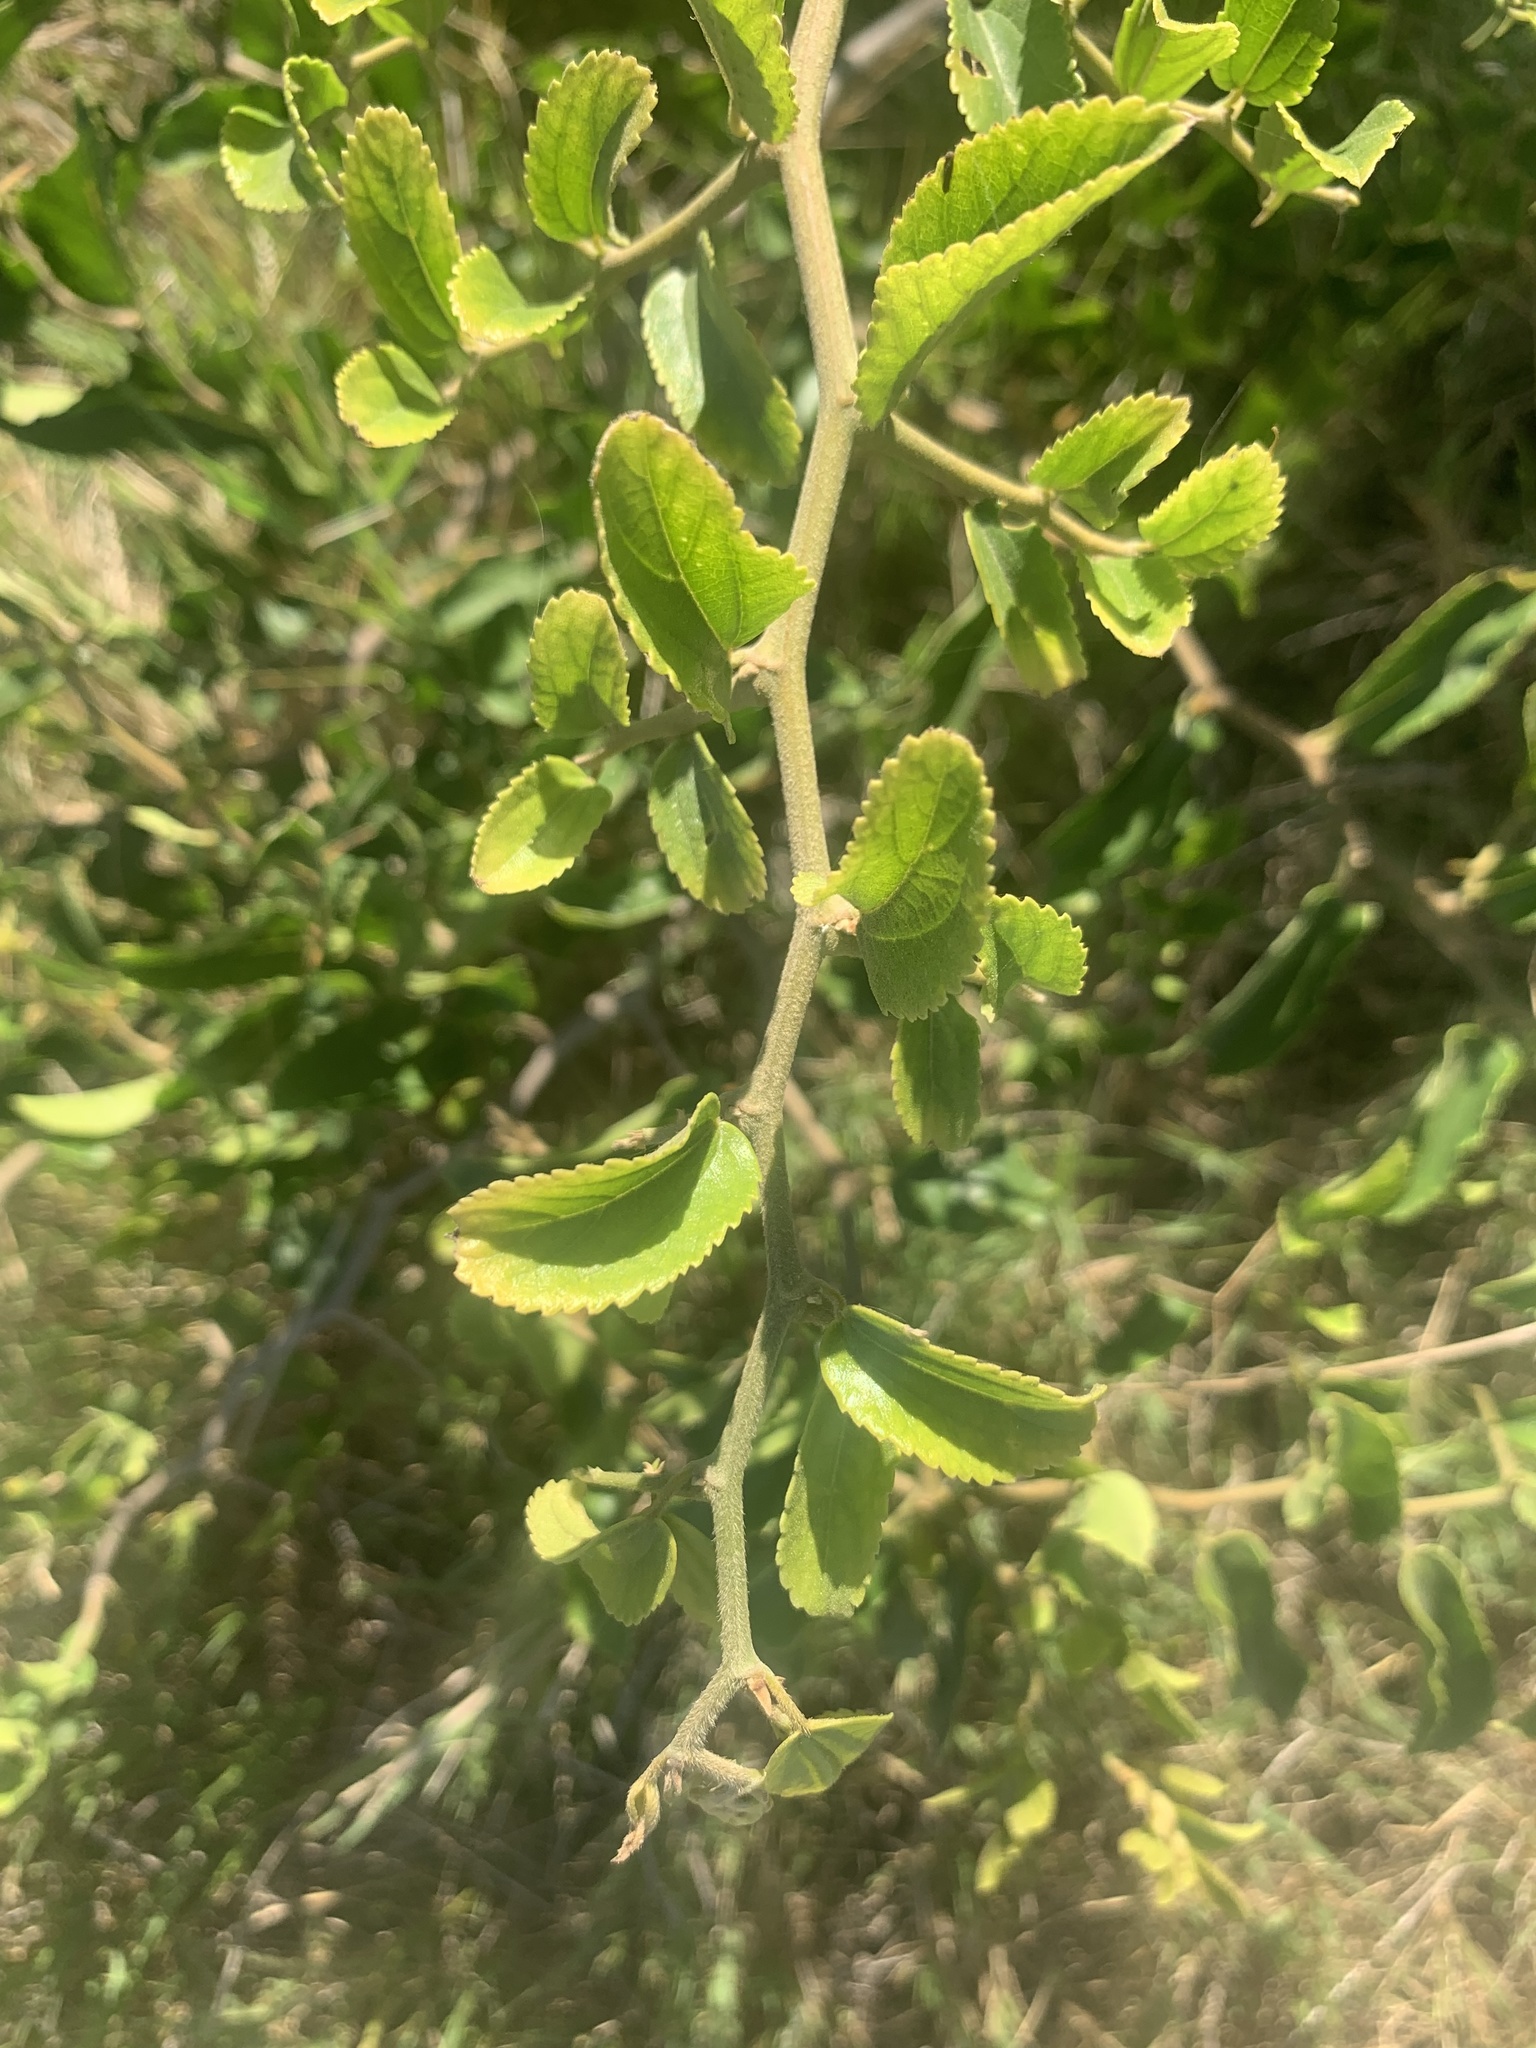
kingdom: Plantae
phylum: Tracheophyta
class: Magnoliopsida
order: Rosales
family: Cannabaceae
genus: Celtis
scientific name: Celtis iguanaea
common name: Iguana hackberry
